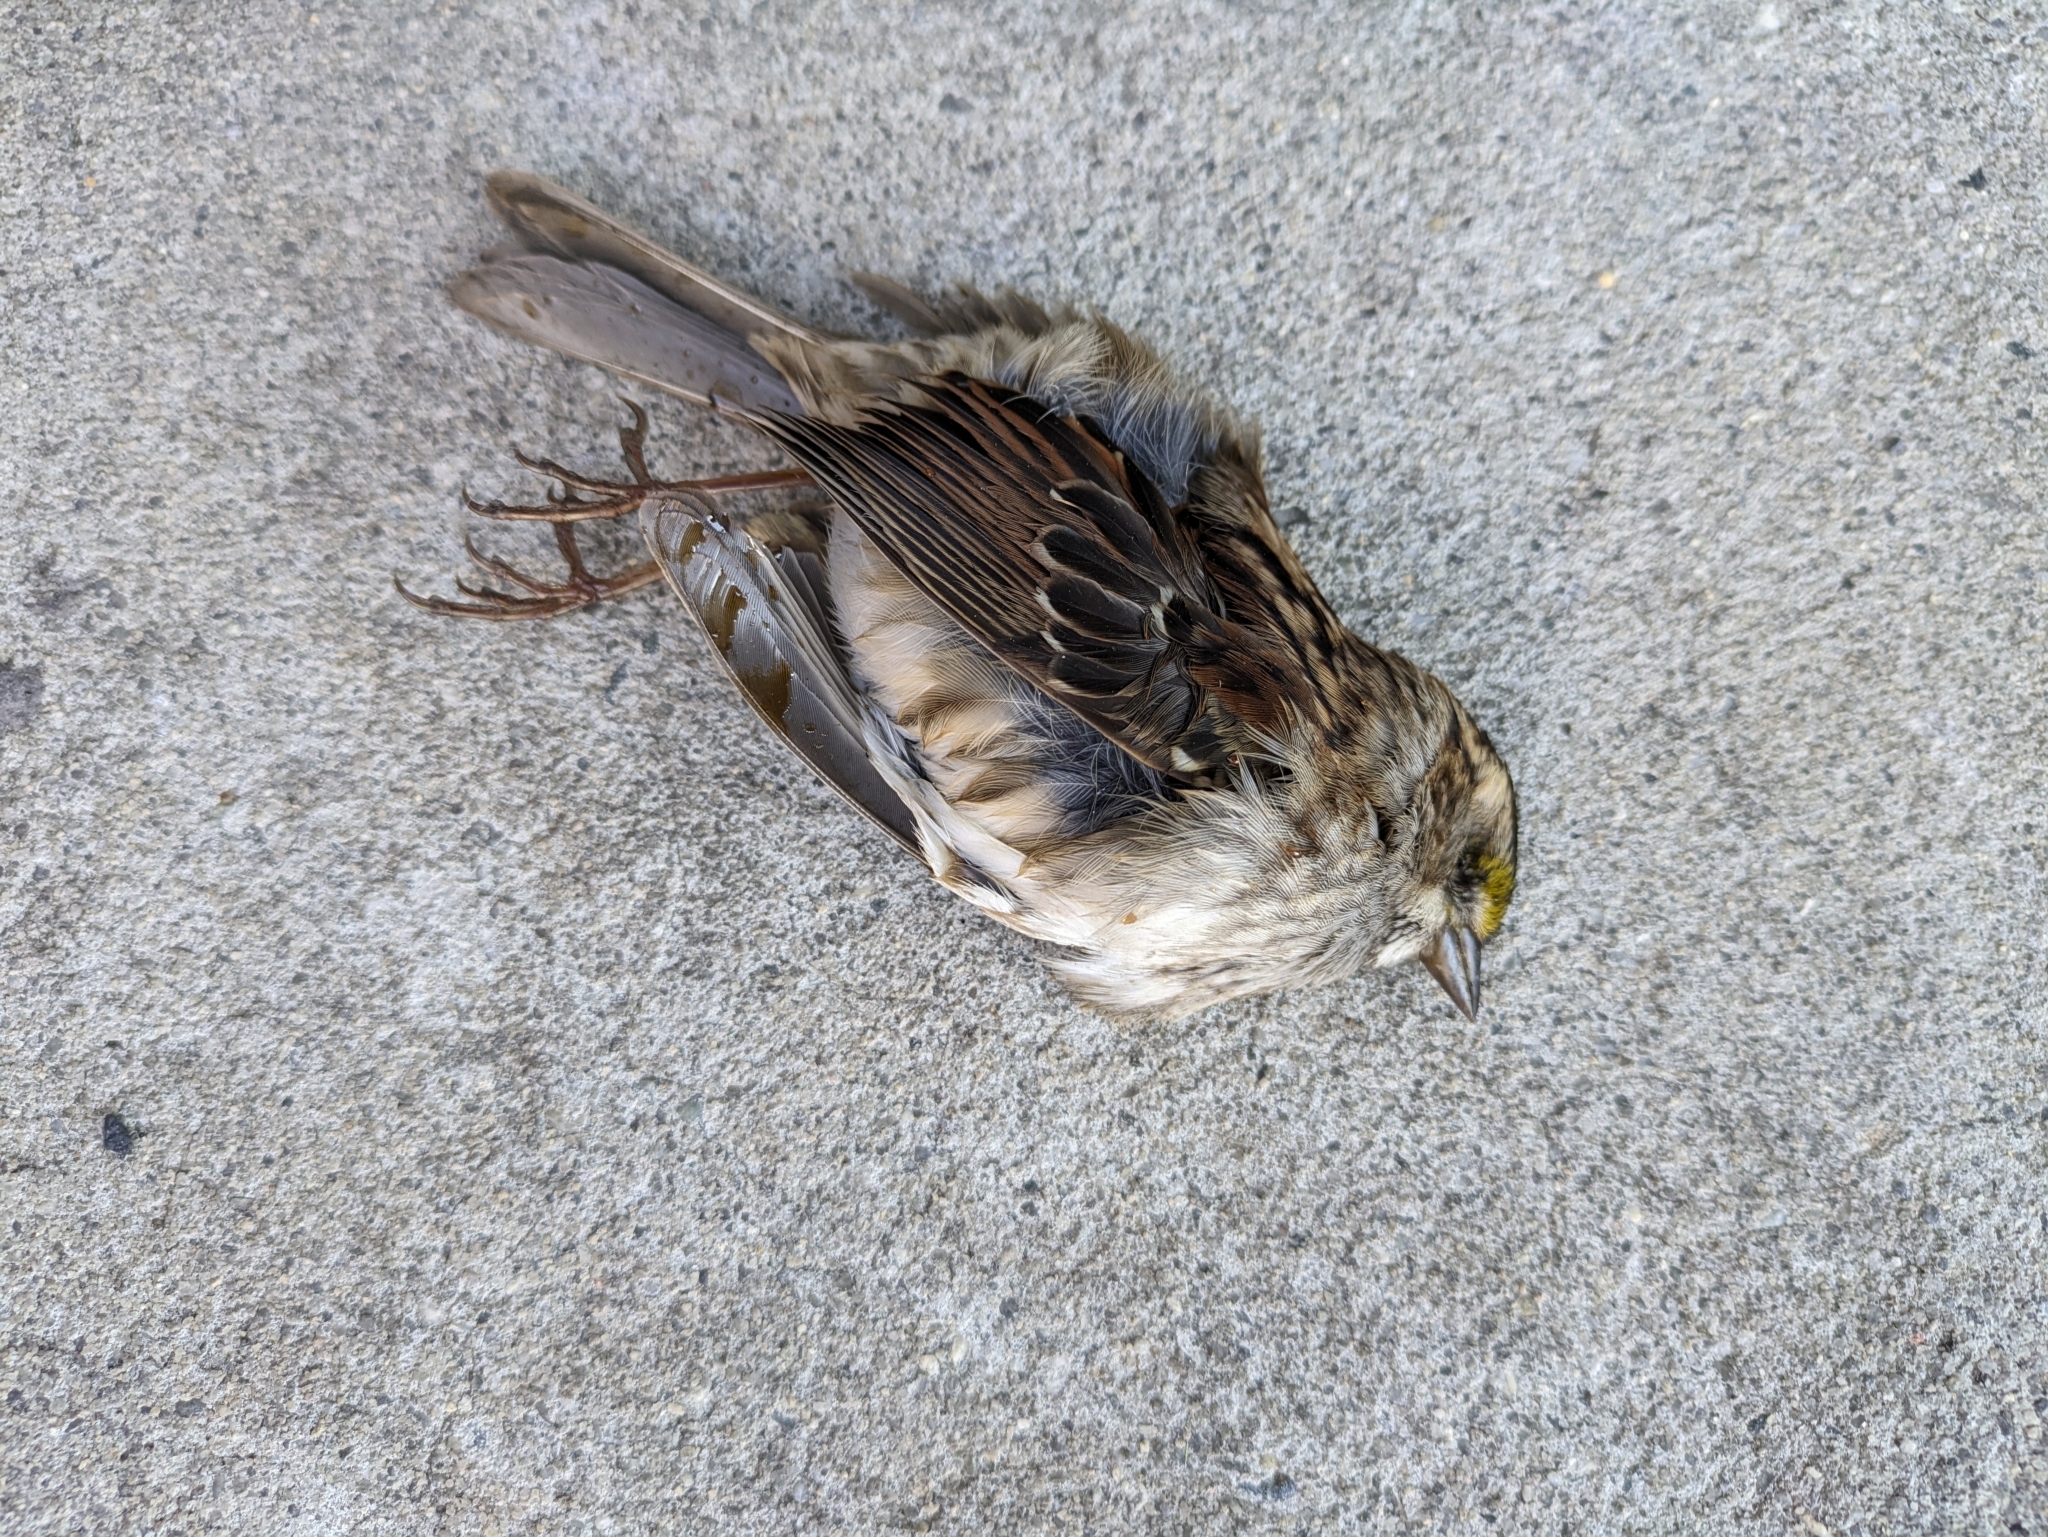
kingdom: Animalia
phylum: Chordata
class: Aves
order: Passeriformes
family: Passerellidae
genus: Zonotrichia
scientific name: Zonotrichia albicollis
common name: White-throated sparrow
